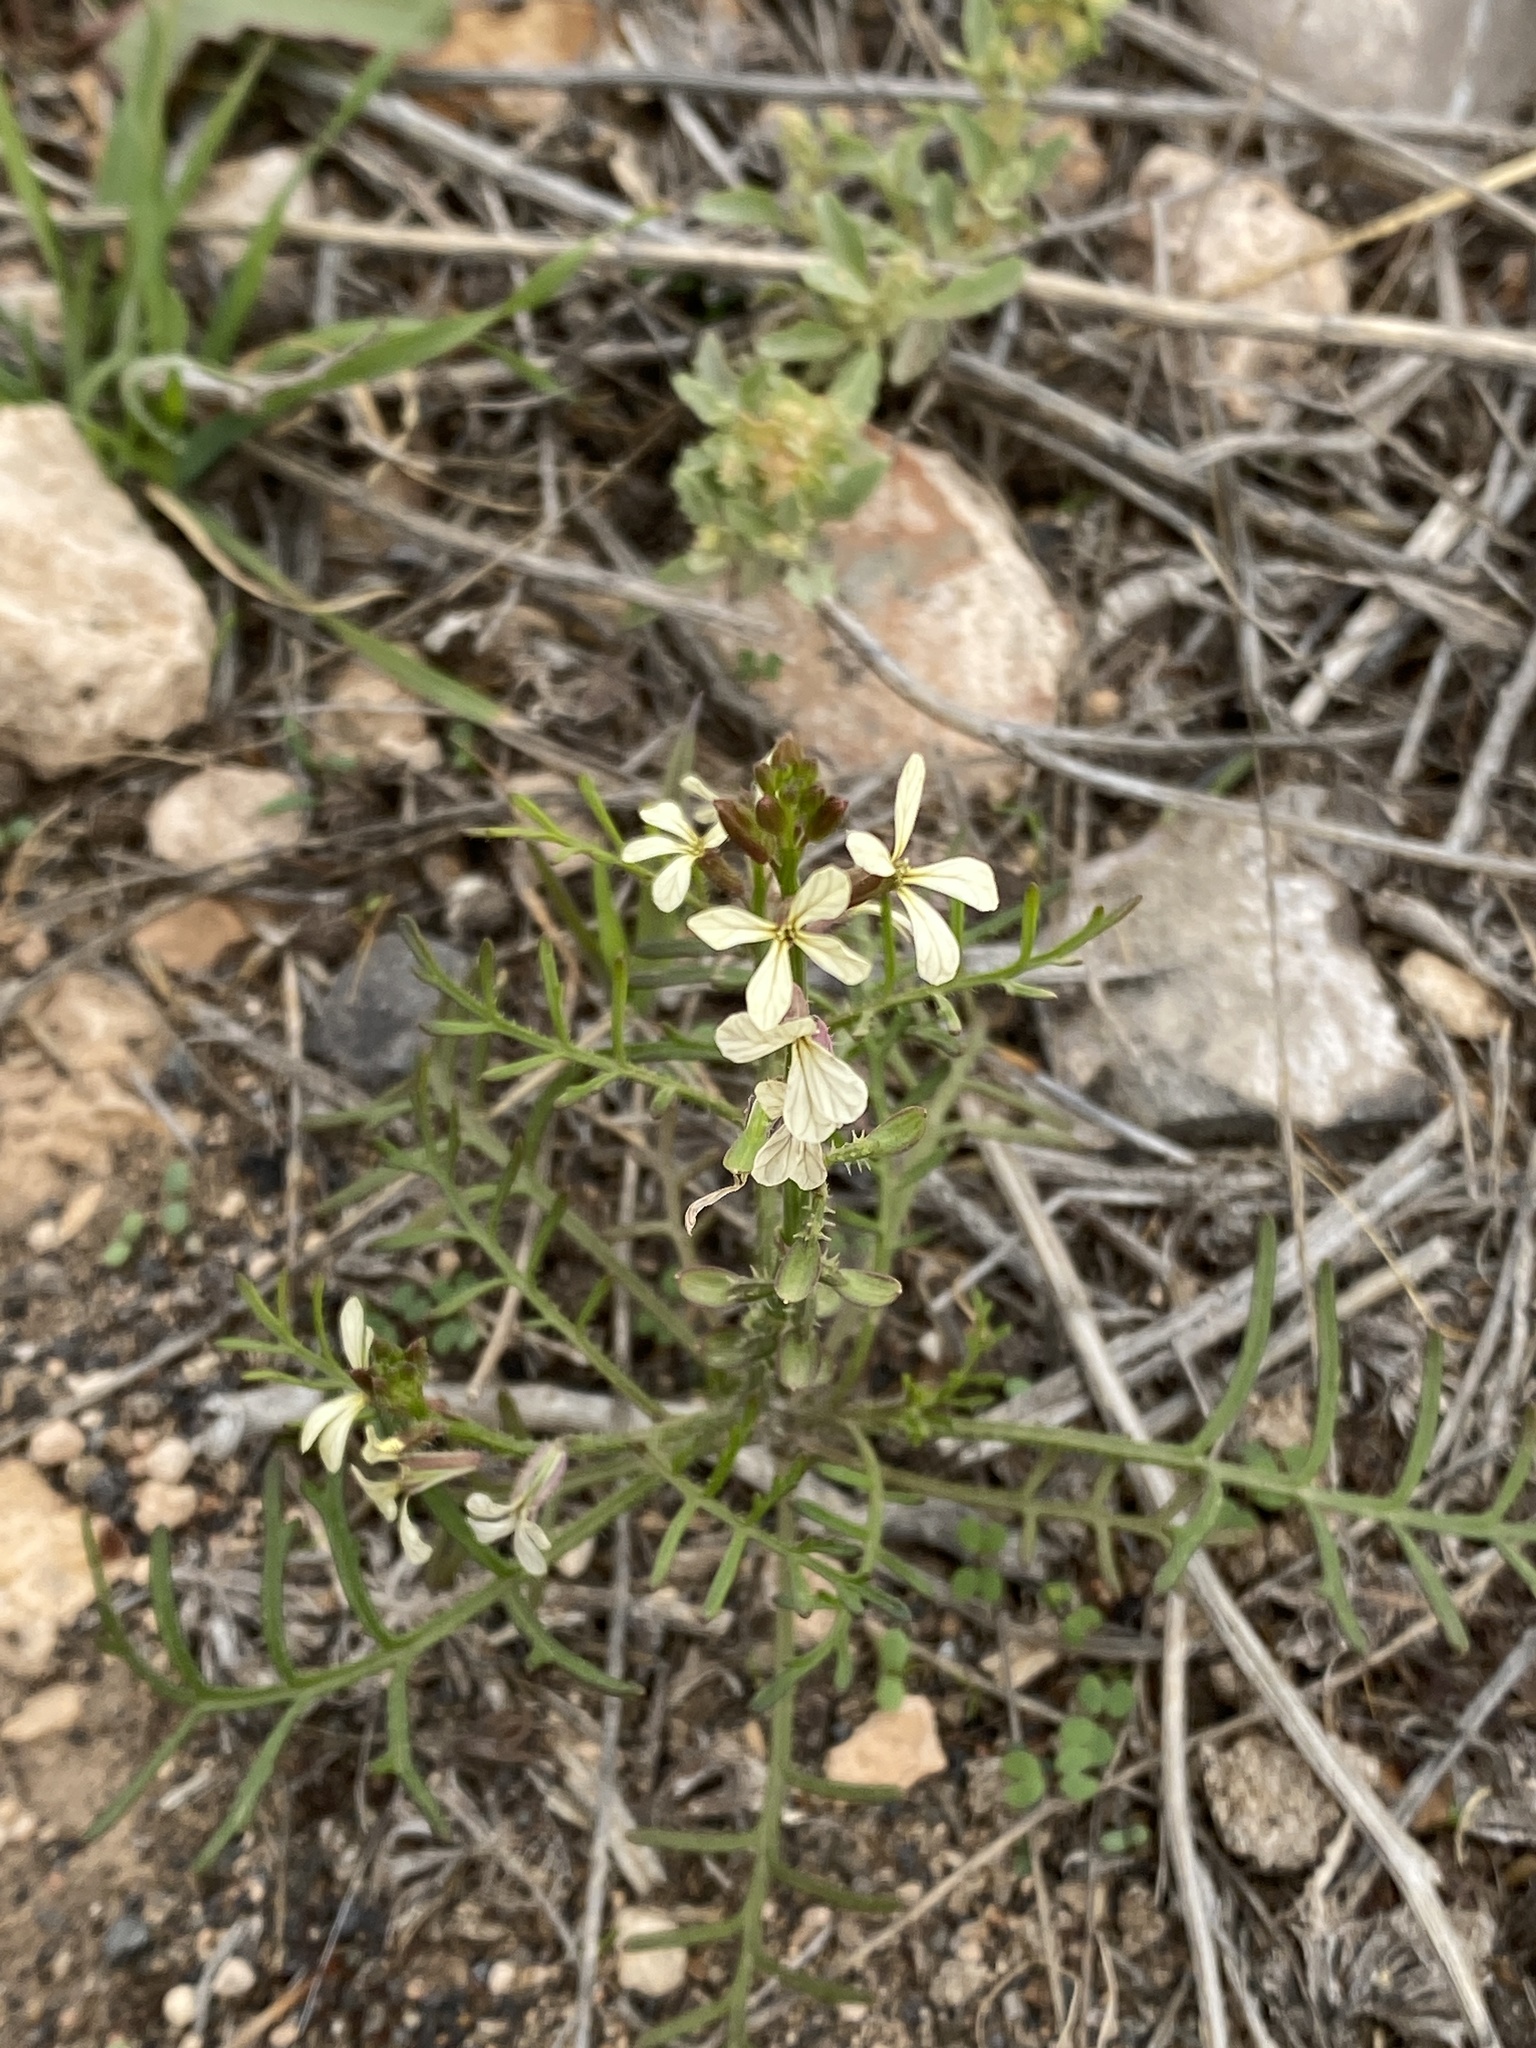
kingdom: Plantae
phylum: Tracheophyta
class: Magnoliopsida
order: Brassicales
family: Brassicaceae
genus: Carrichtera
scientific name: Carrichtera annua
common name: Cress rocket
